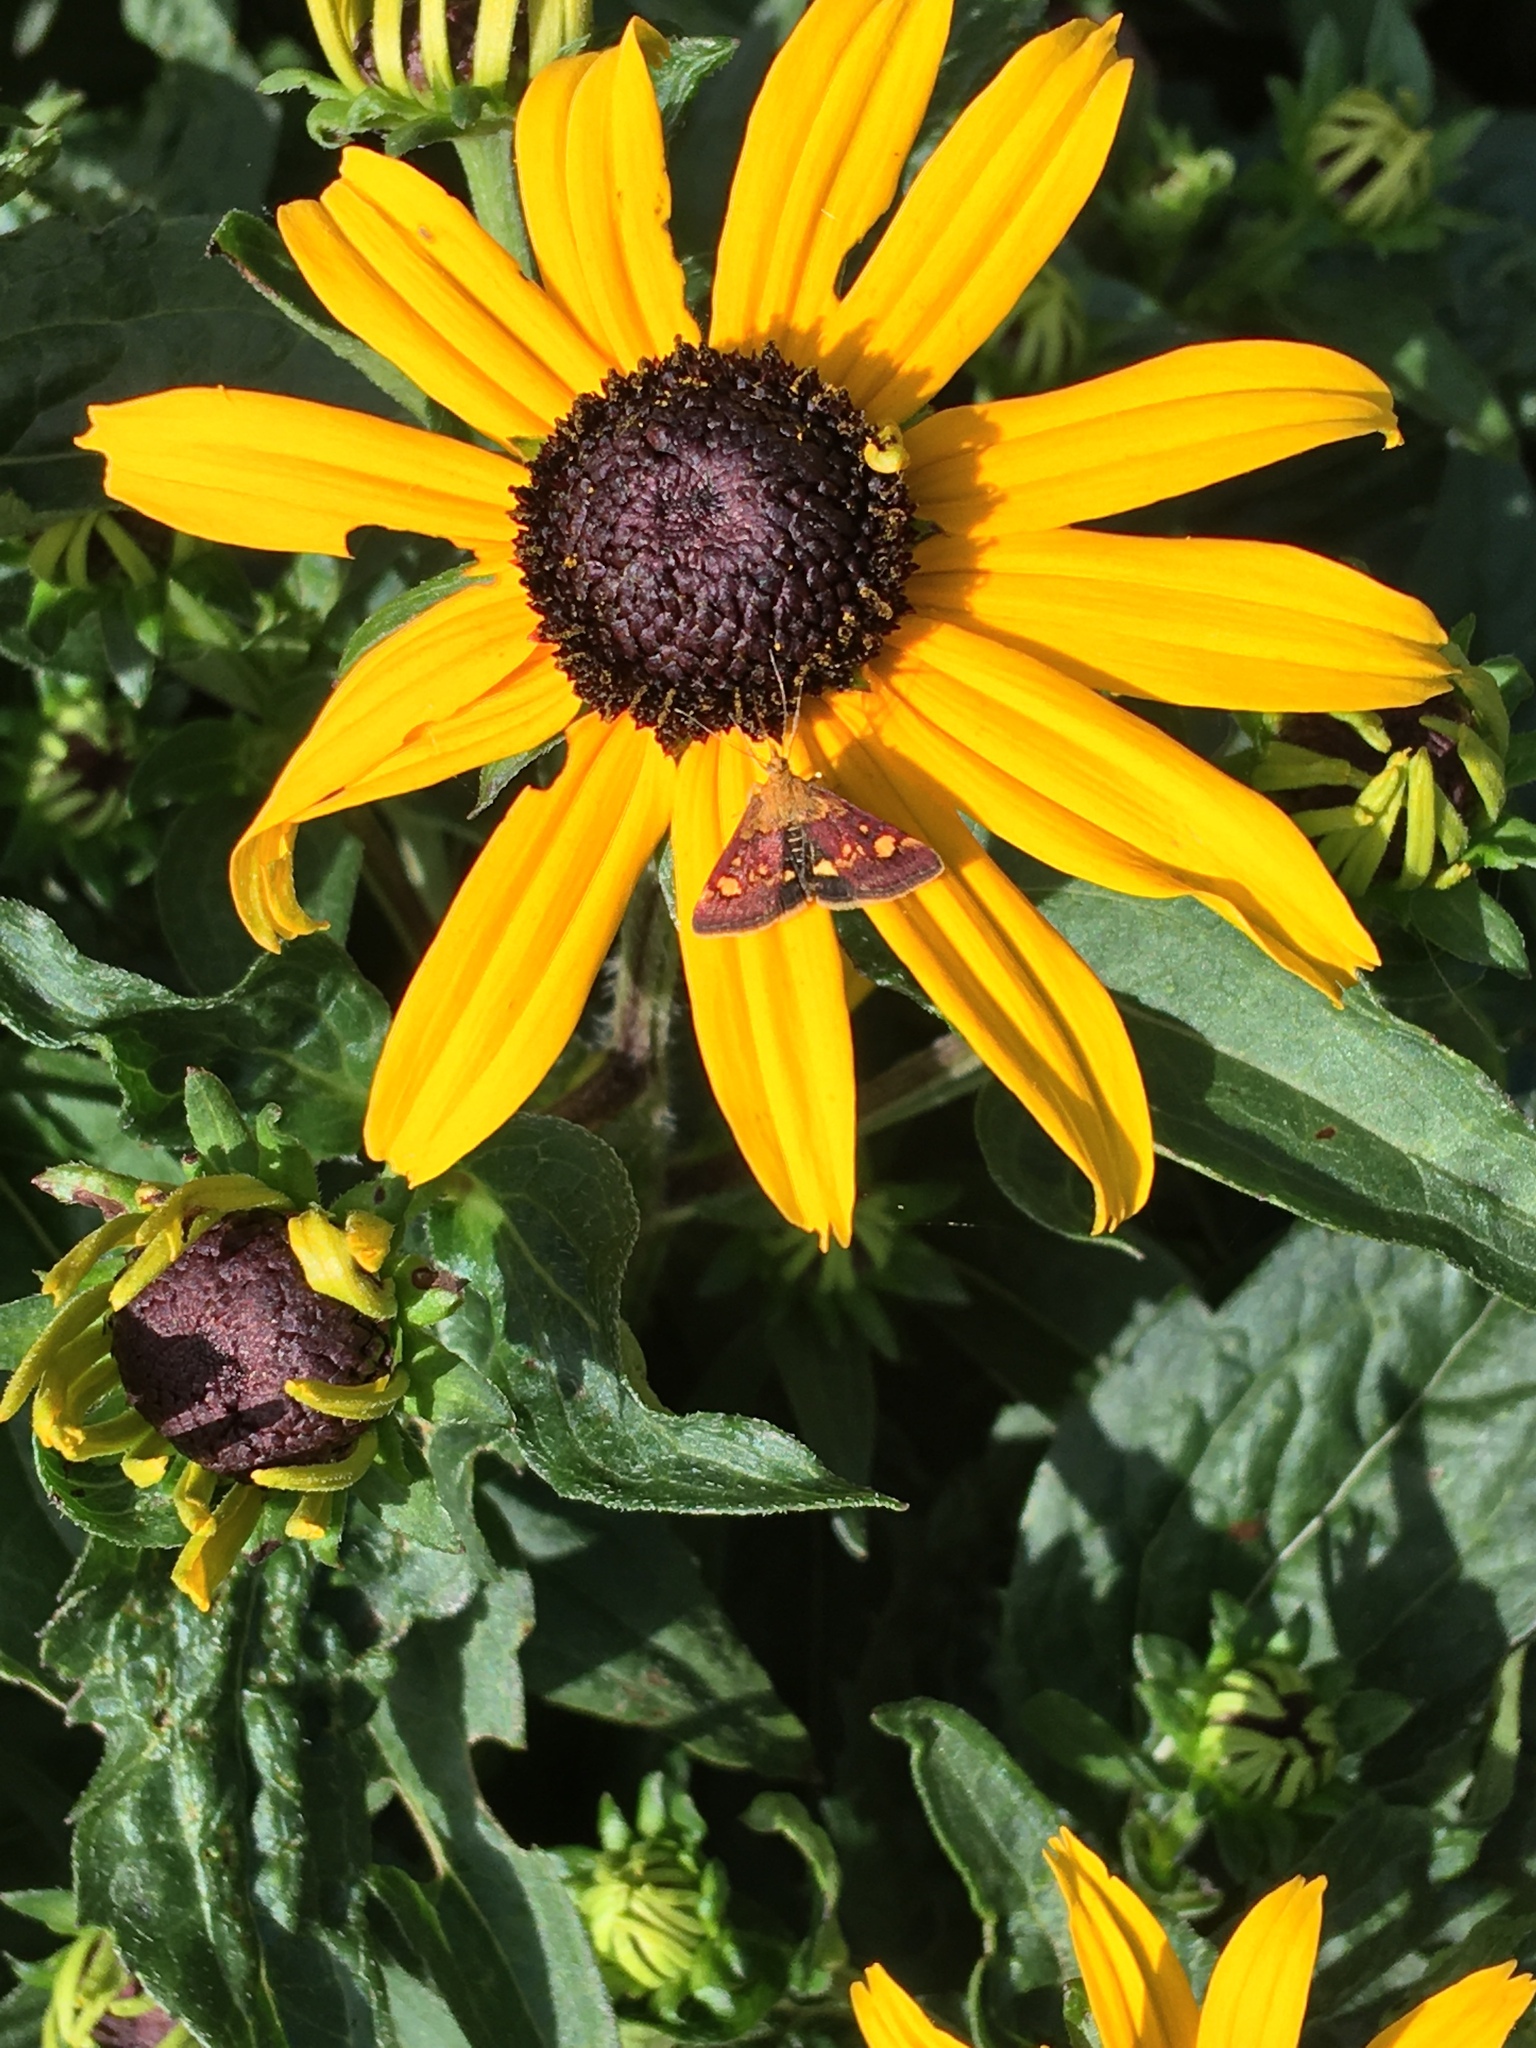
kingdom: Animalia
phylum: Arthropoda
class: Insecta
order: Lepidoptera
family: Crambidae
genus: Pyrausta
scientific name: Pyrausta aurata
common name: Small purple & gold
